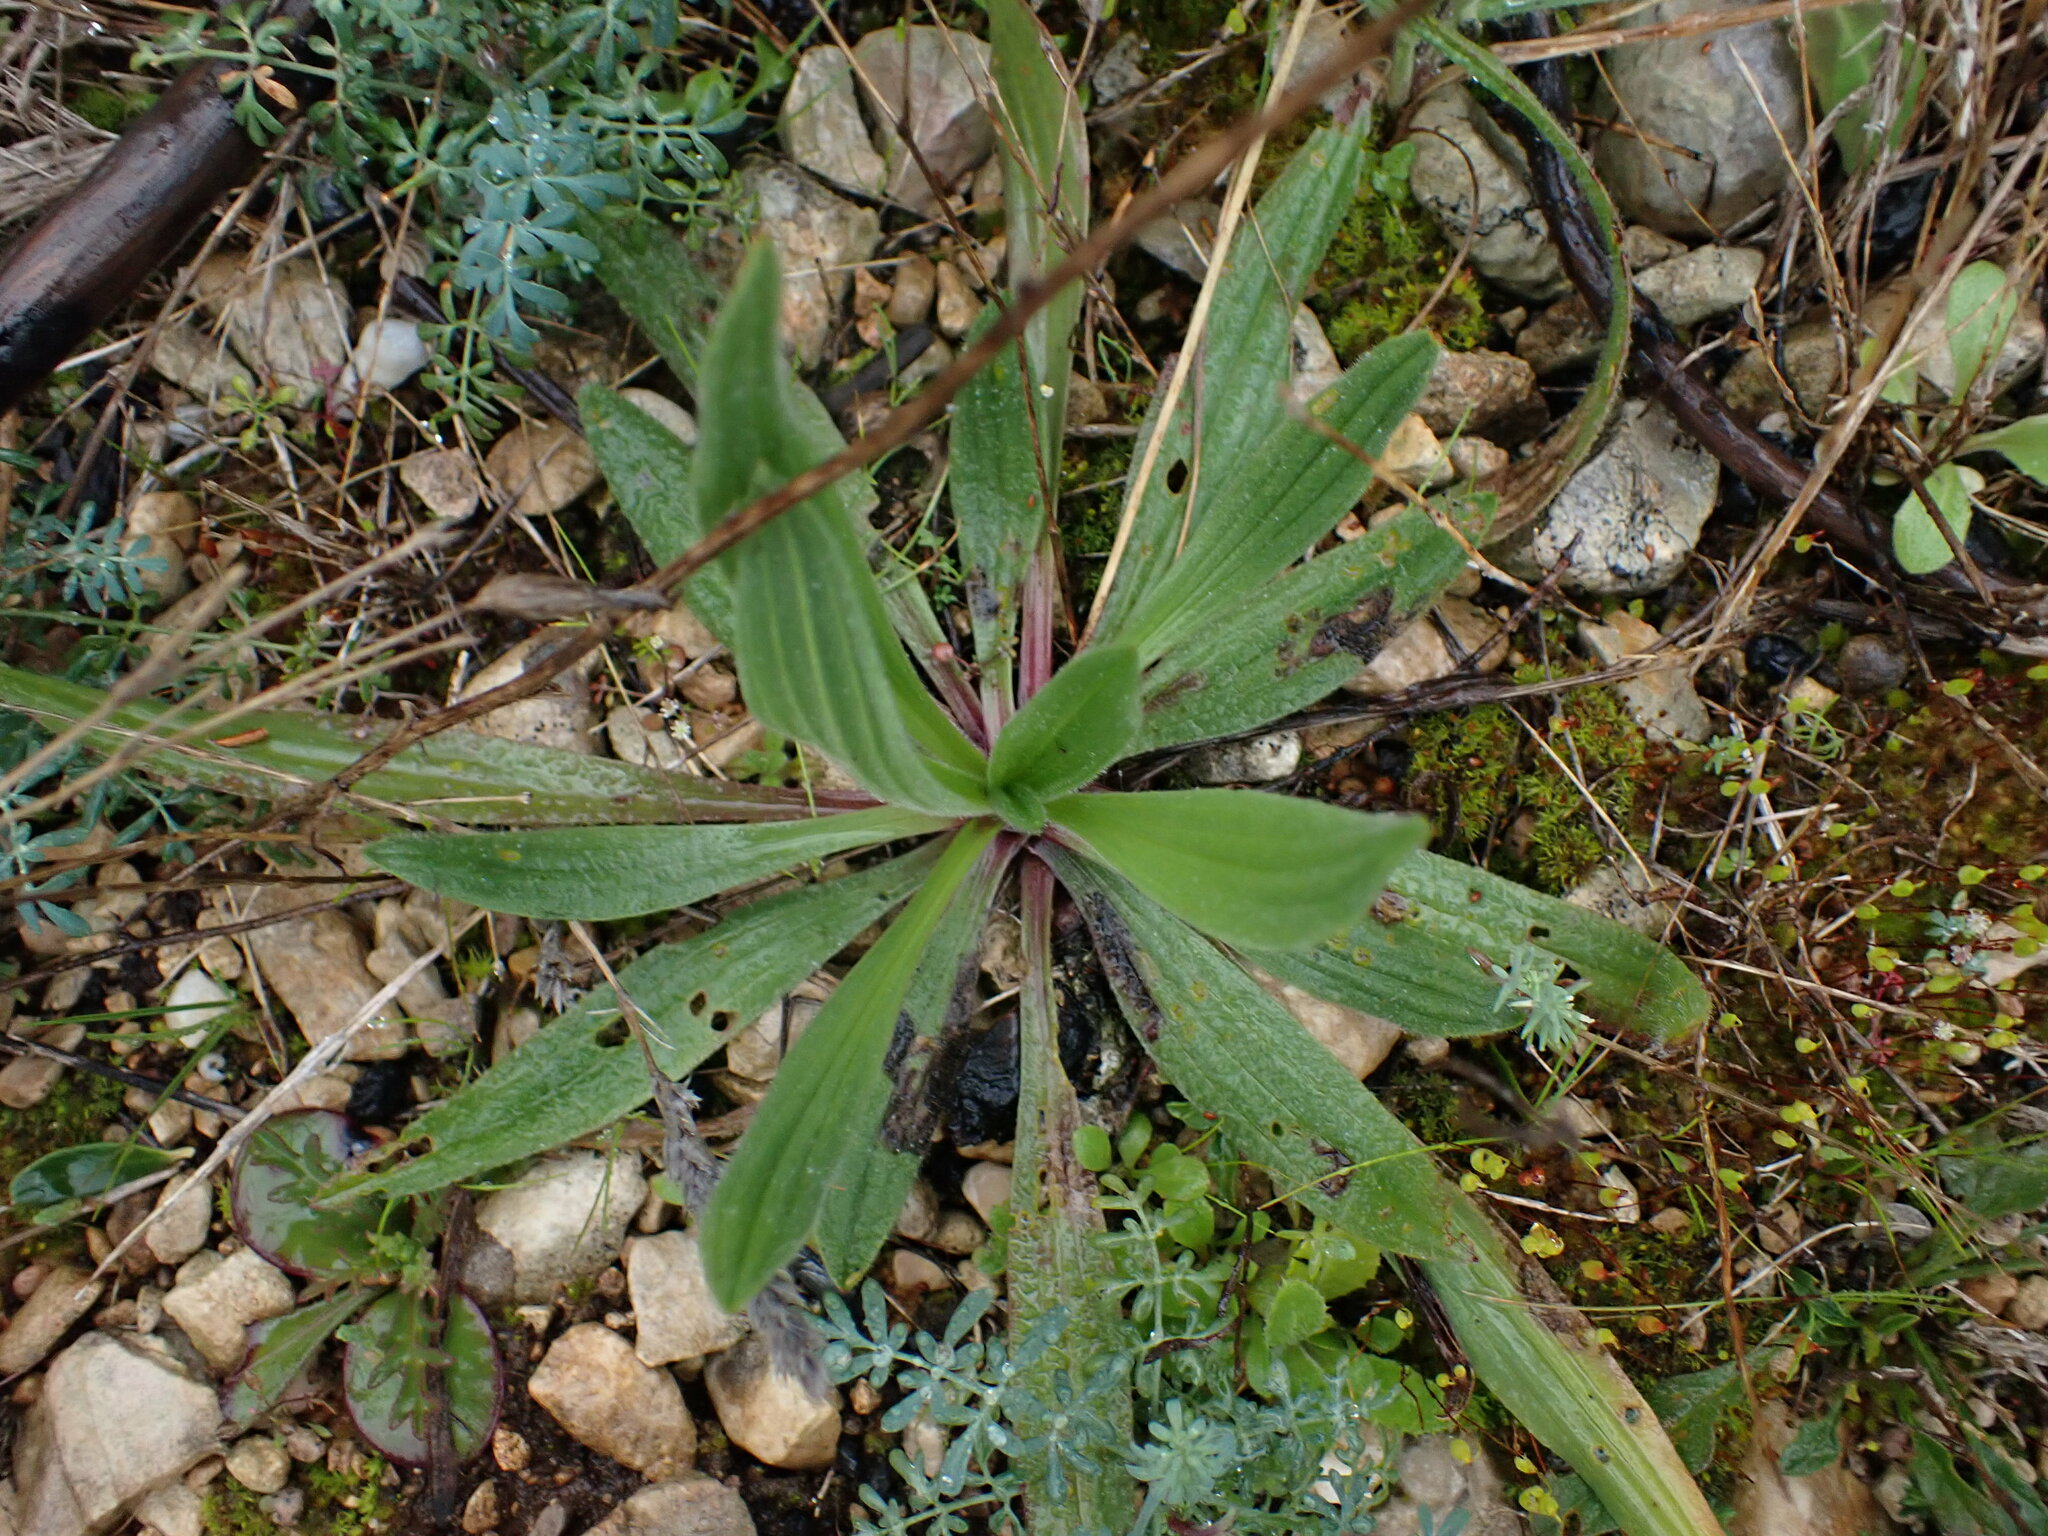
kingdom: Plantae
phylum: Tracheophyta
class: Magnoliopsida
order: Lamiales
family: Plantaginaceae
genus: Plantago
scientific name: Plantago lanceolata
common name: Ribwort plantain
